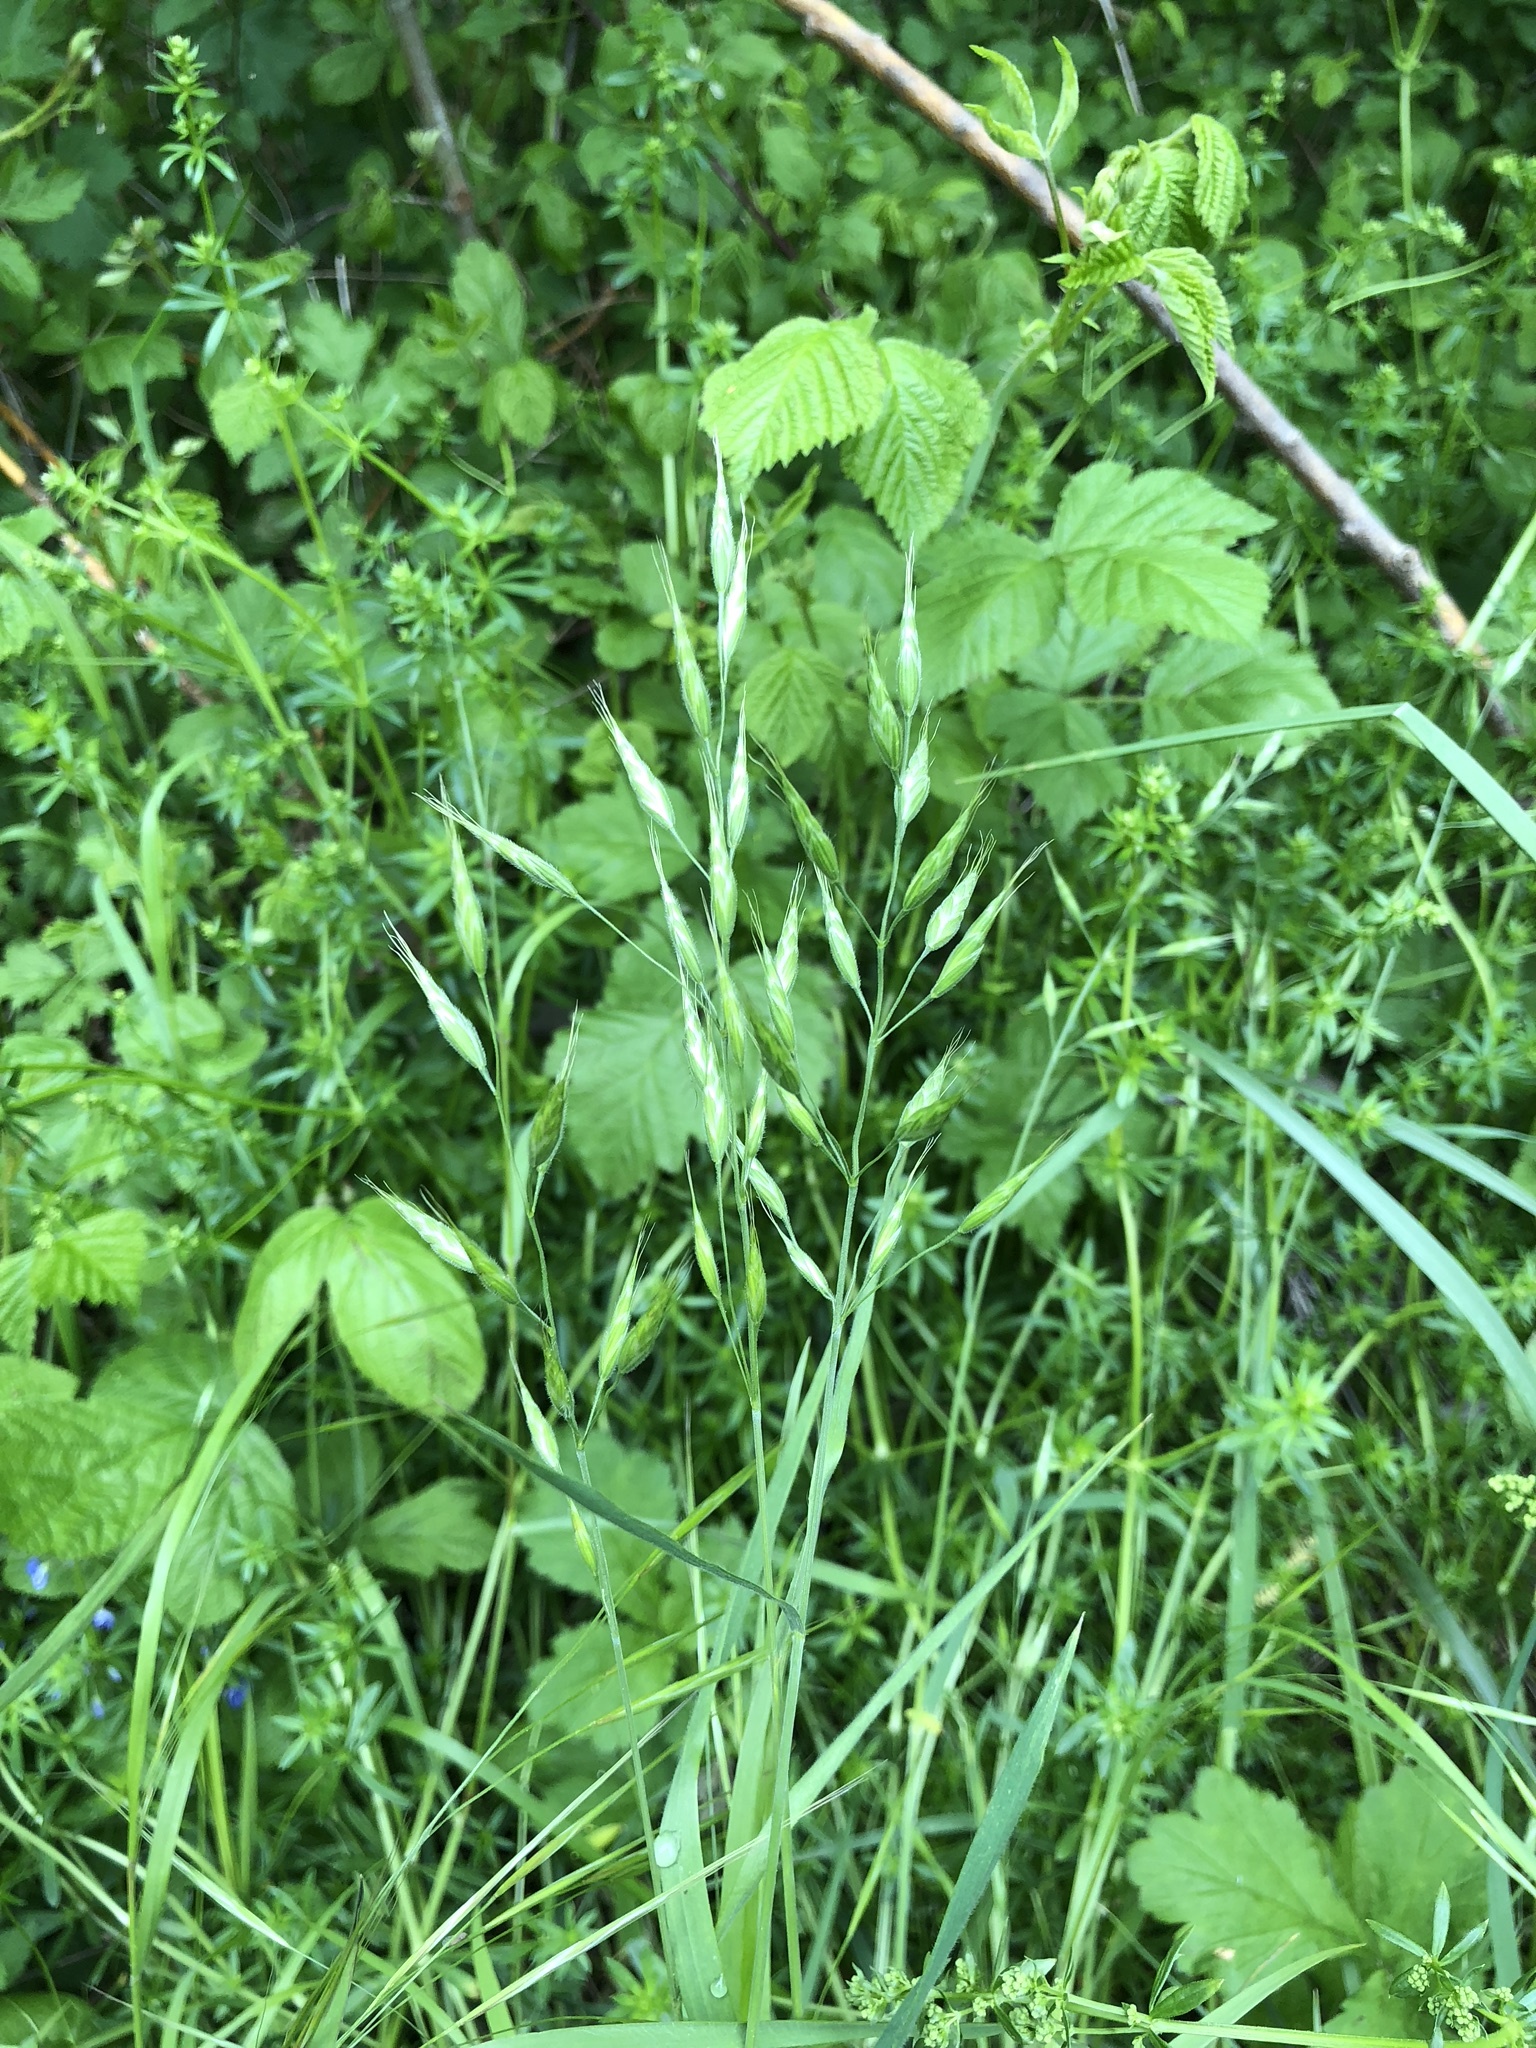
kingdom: Plantae
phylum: Tracheophyta
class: Liliopsida
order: Poales
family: Poaceae
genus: Bromus
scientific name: Bromus hordeaceus
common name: Soft brome
